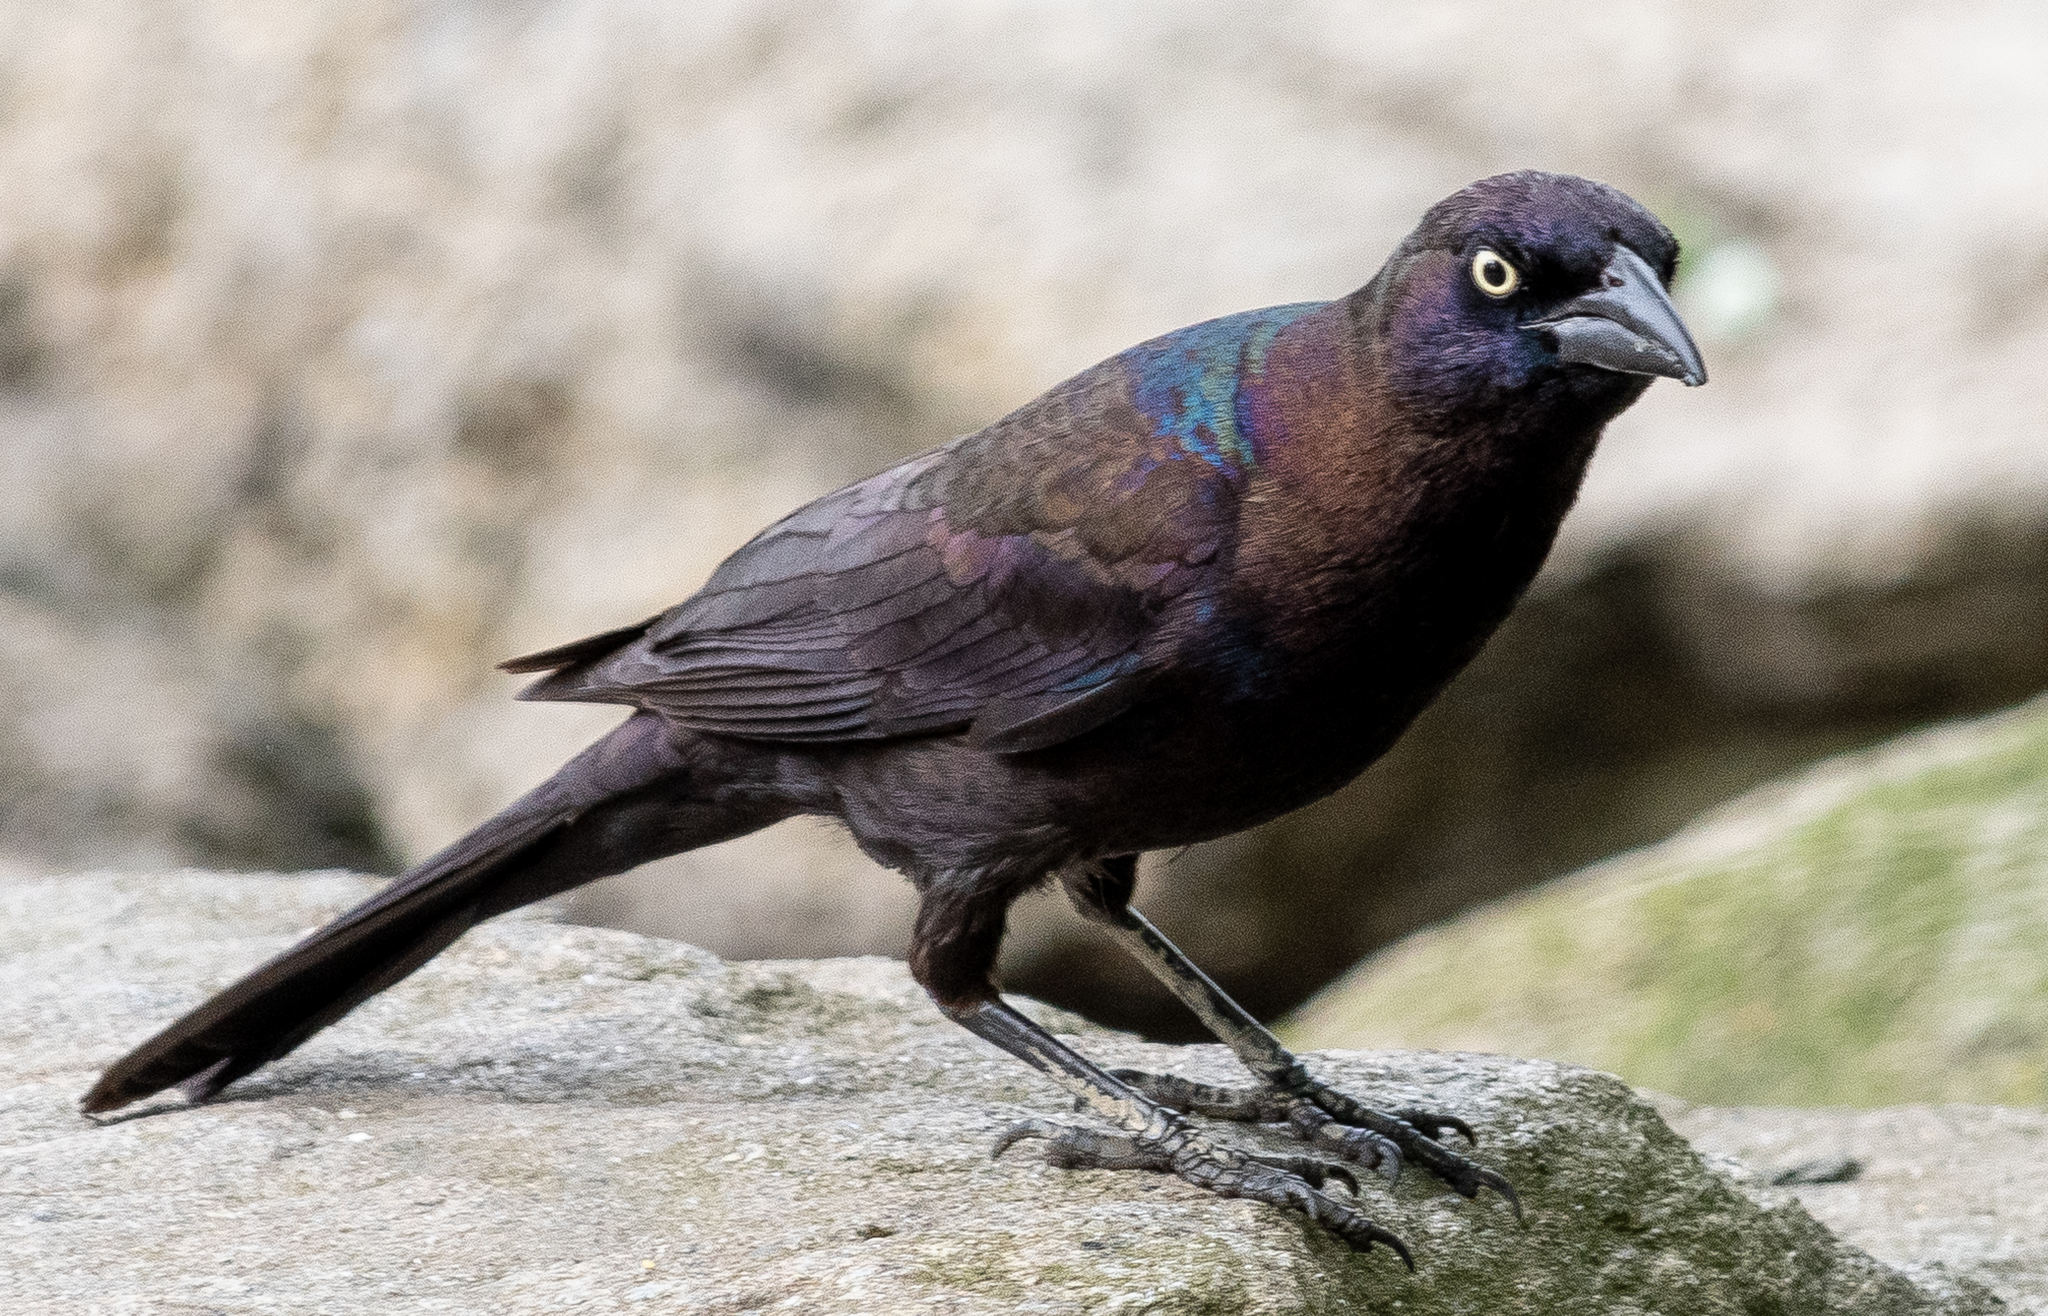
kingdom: Animalia
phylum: Chordata
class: Aves
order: Passeriformes
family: Icteridae
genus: Quiscalus
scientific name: Quiscalus quiscula
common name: Common grackle
